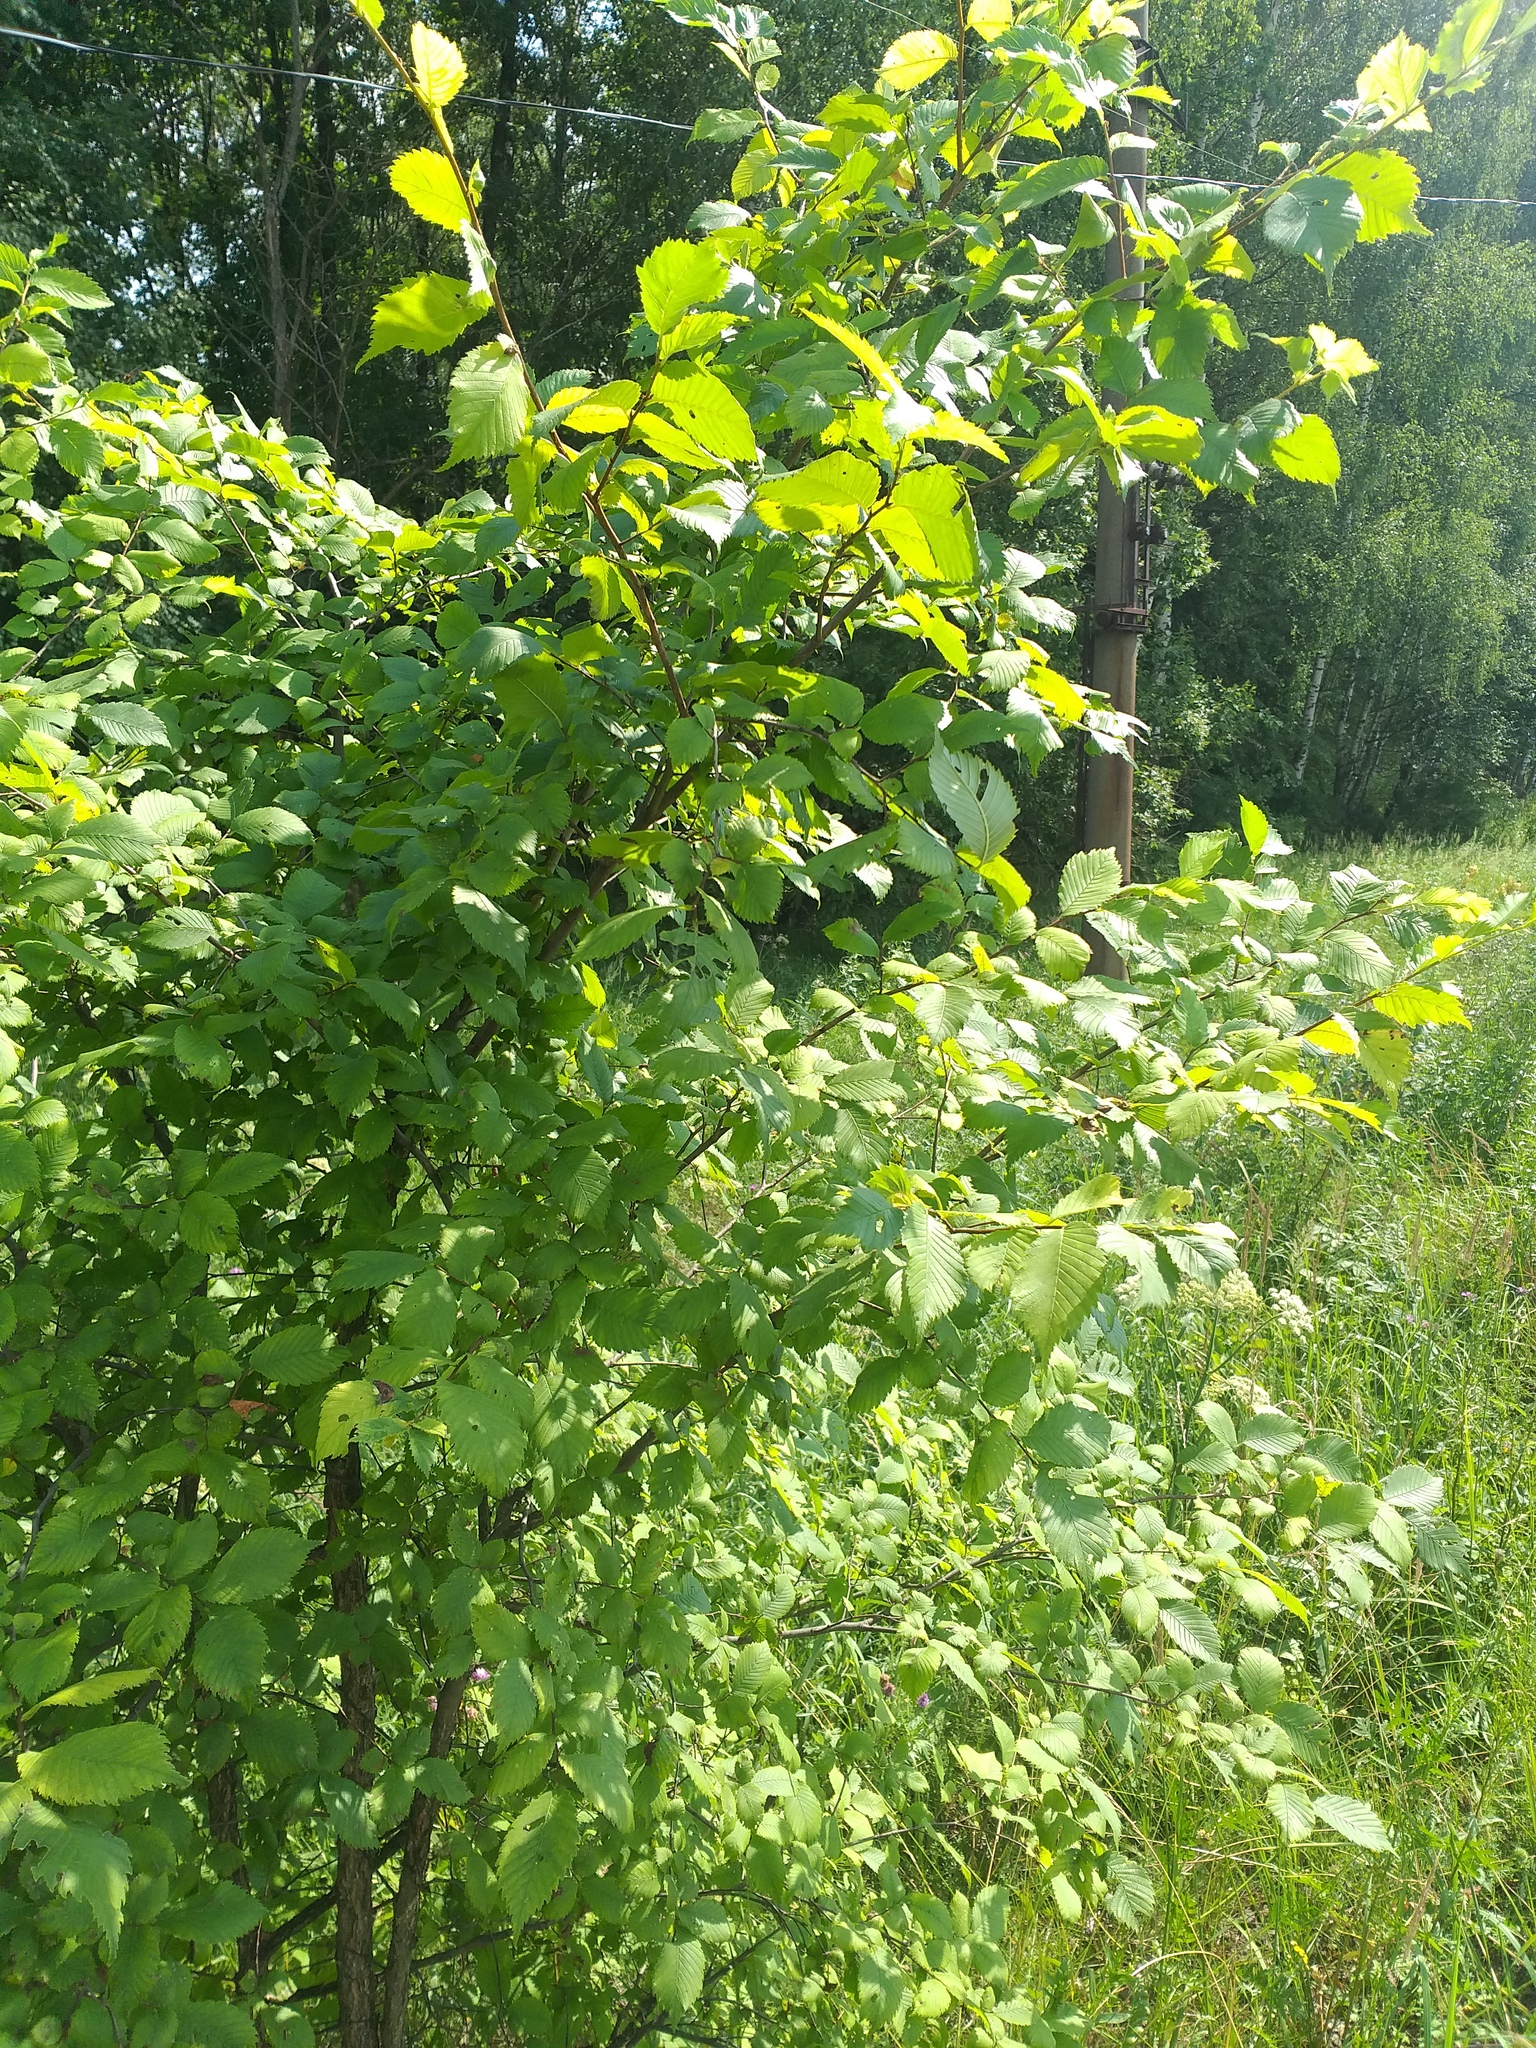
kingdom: Plantae
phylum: Tracheophyta
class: Magnoliopsida
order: Rosales
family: Ulmaceae
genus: Ulmus
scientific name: Ulmus laevis
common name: European white-elm
